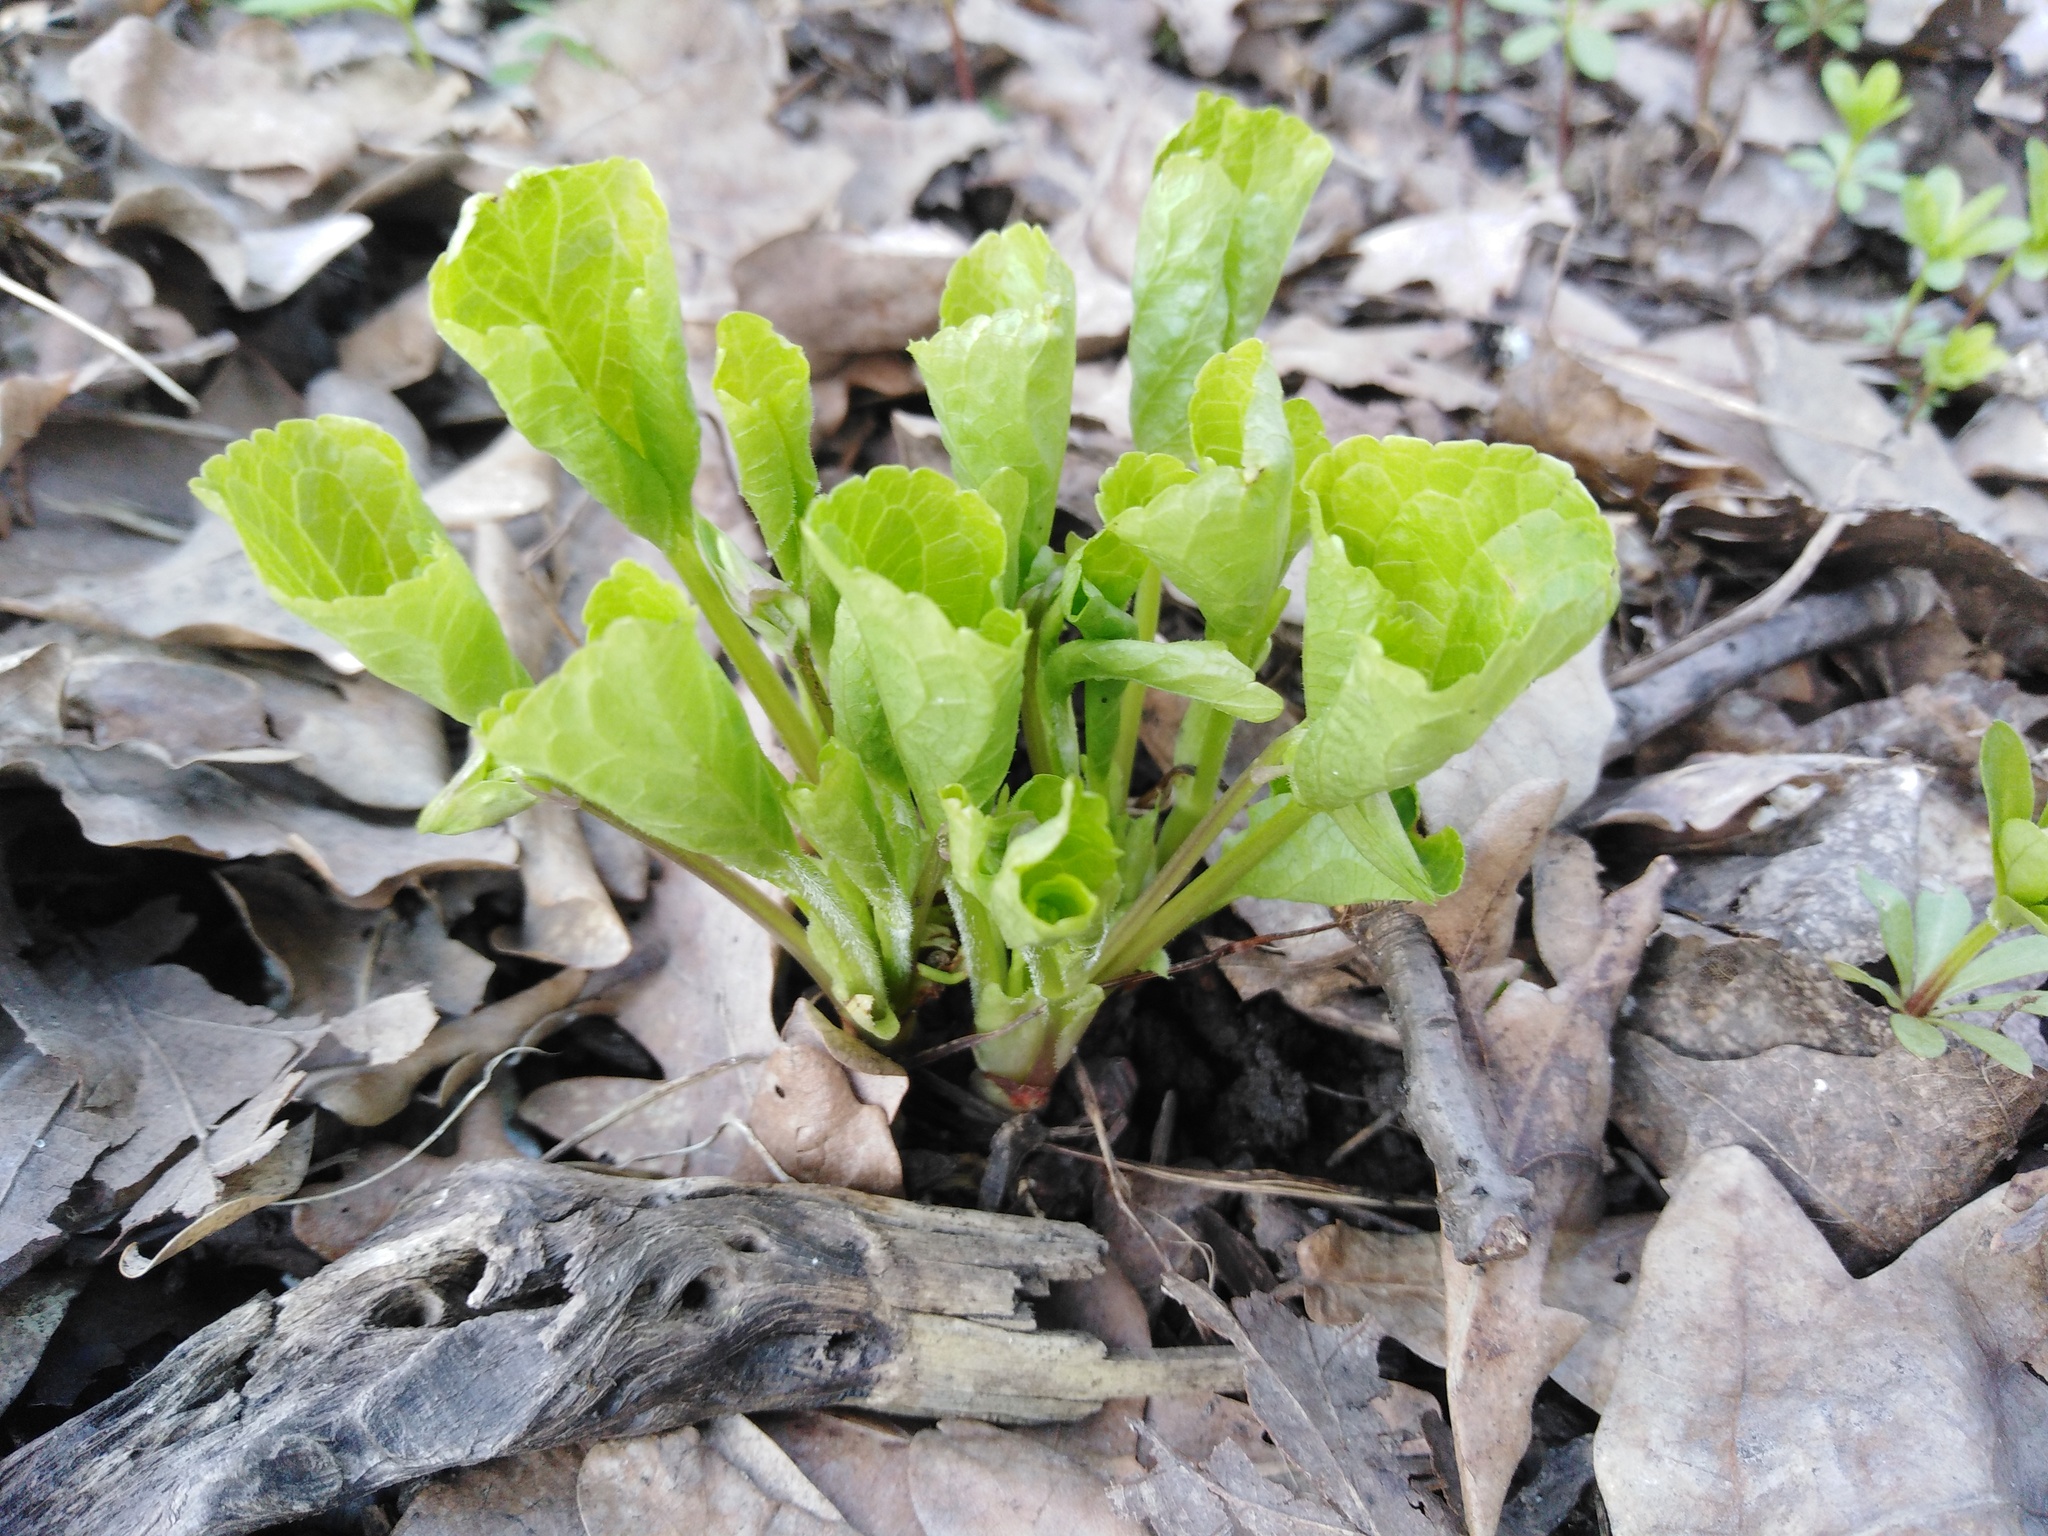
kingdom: Plantae
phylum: Tracheophyta
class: Magnoliopsida
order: Malpighiales
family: Violaceae
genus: Viola
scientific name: Viola mirabilis
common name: Wonder violet
